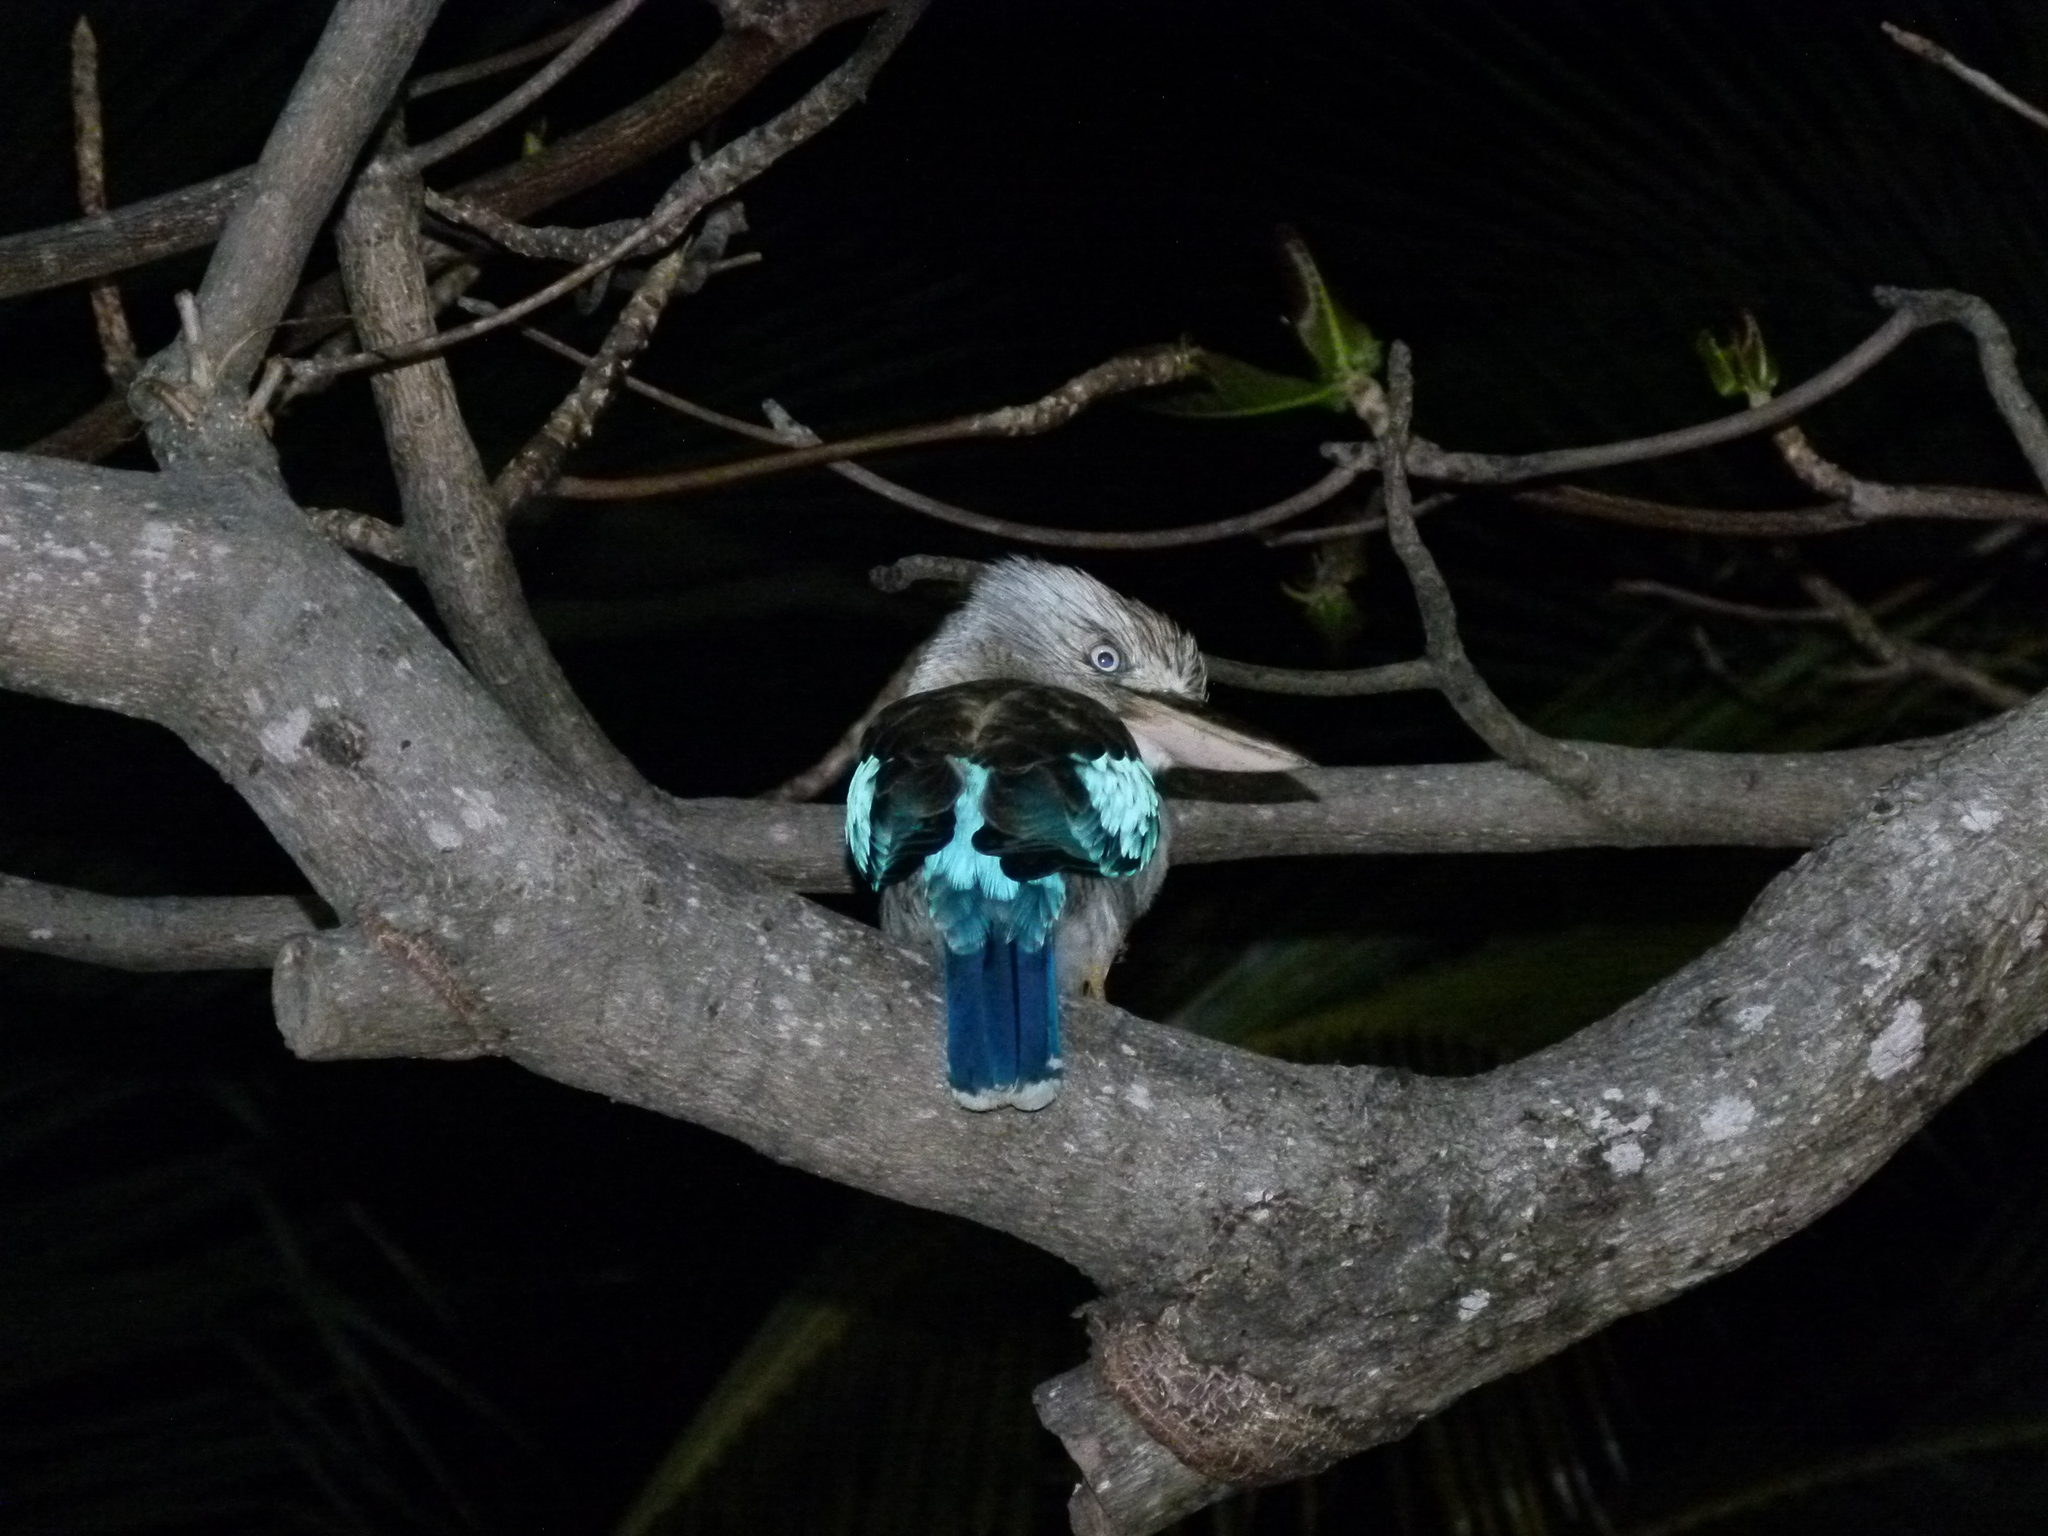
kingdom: Animalia
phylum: Chordata
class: Aves
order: Coraciiformes
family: Alcedinidae
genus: Dacelo
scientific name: Dacelo leachii
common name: Blue-winged kookaburra
